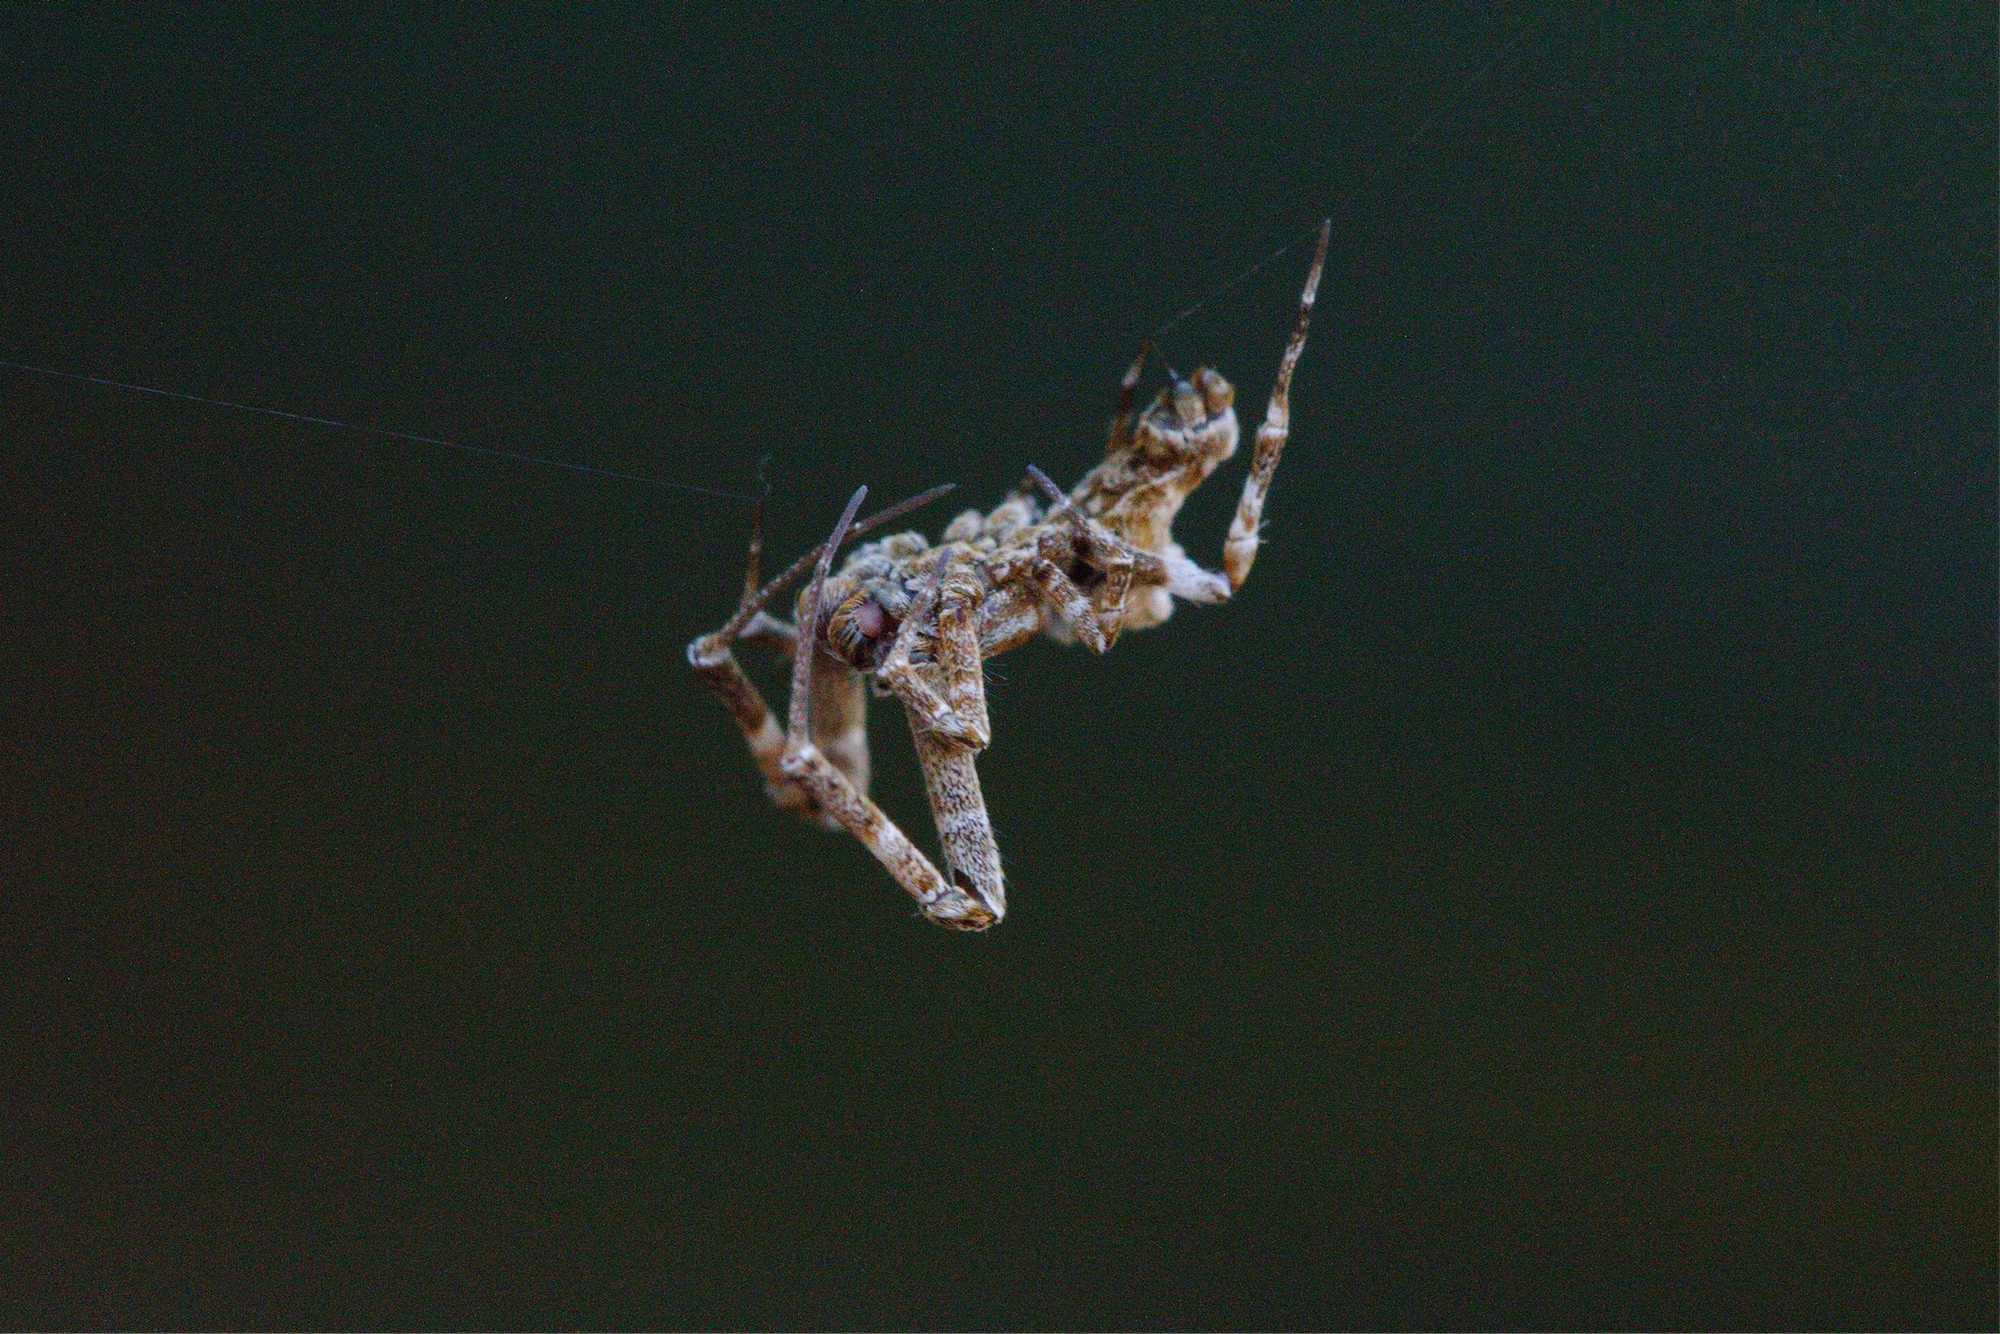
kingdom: Animalia
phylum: Arthropoda
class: Arachnida
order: Araneae
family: Uloboridae
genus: Philoponella
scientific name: Philoponella congregabilis
